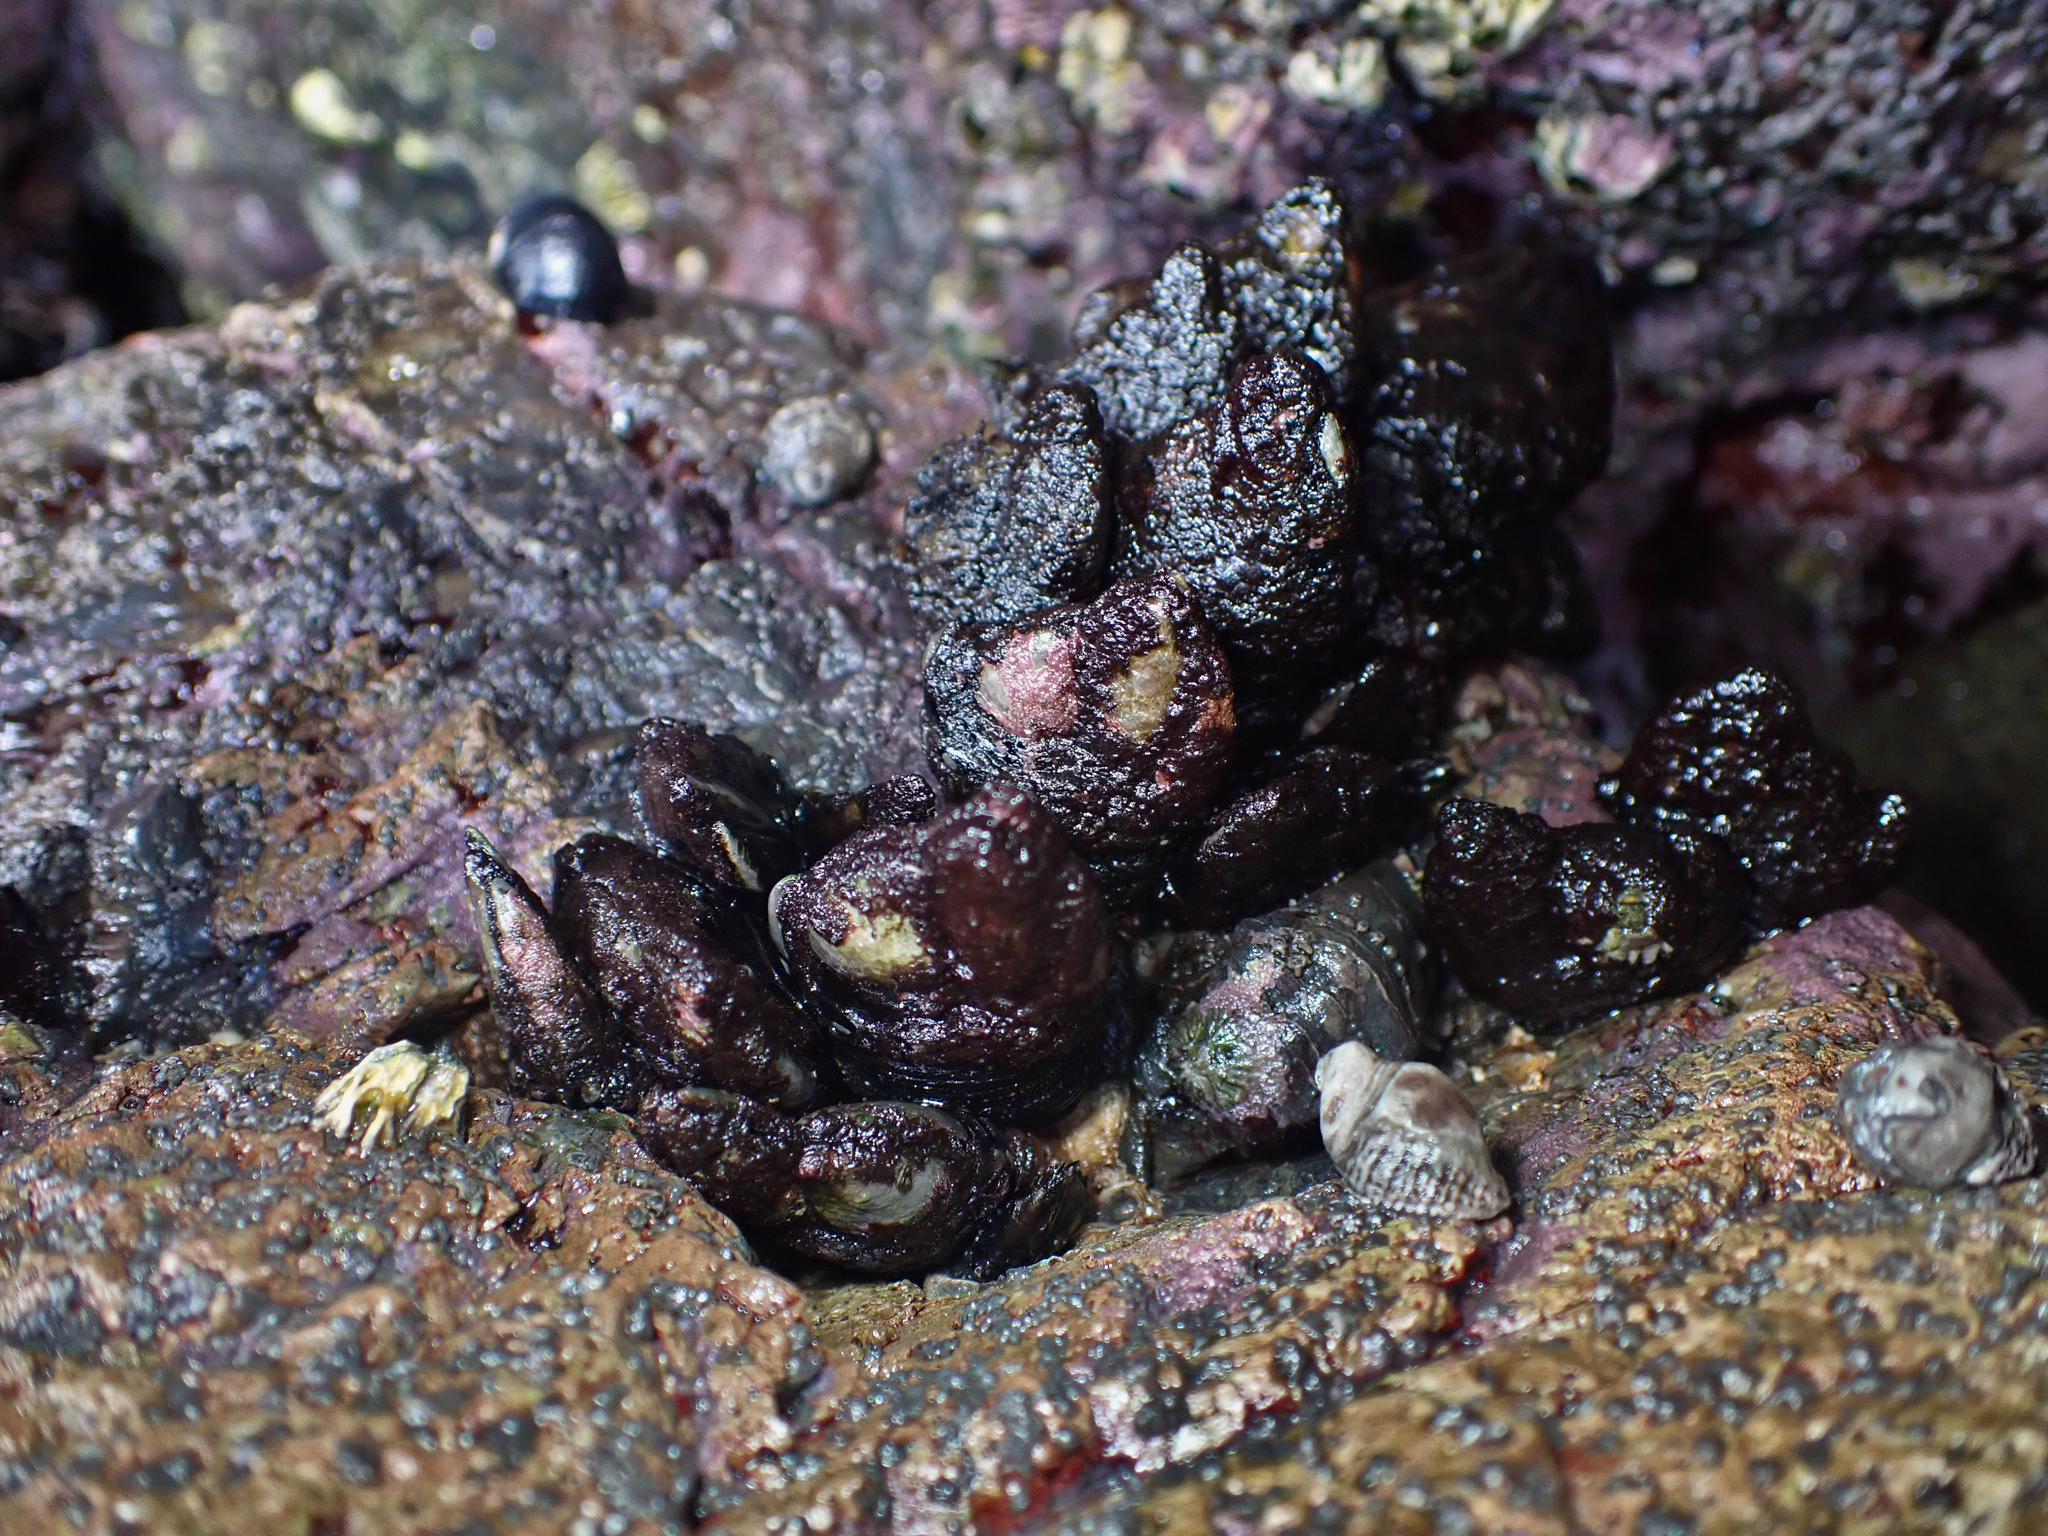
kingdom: Animalia
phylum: Arthropoda
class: Maxillopoda
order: Pedunculata
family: Calanticidae
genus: Calantica
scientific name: Calantica spinosa
